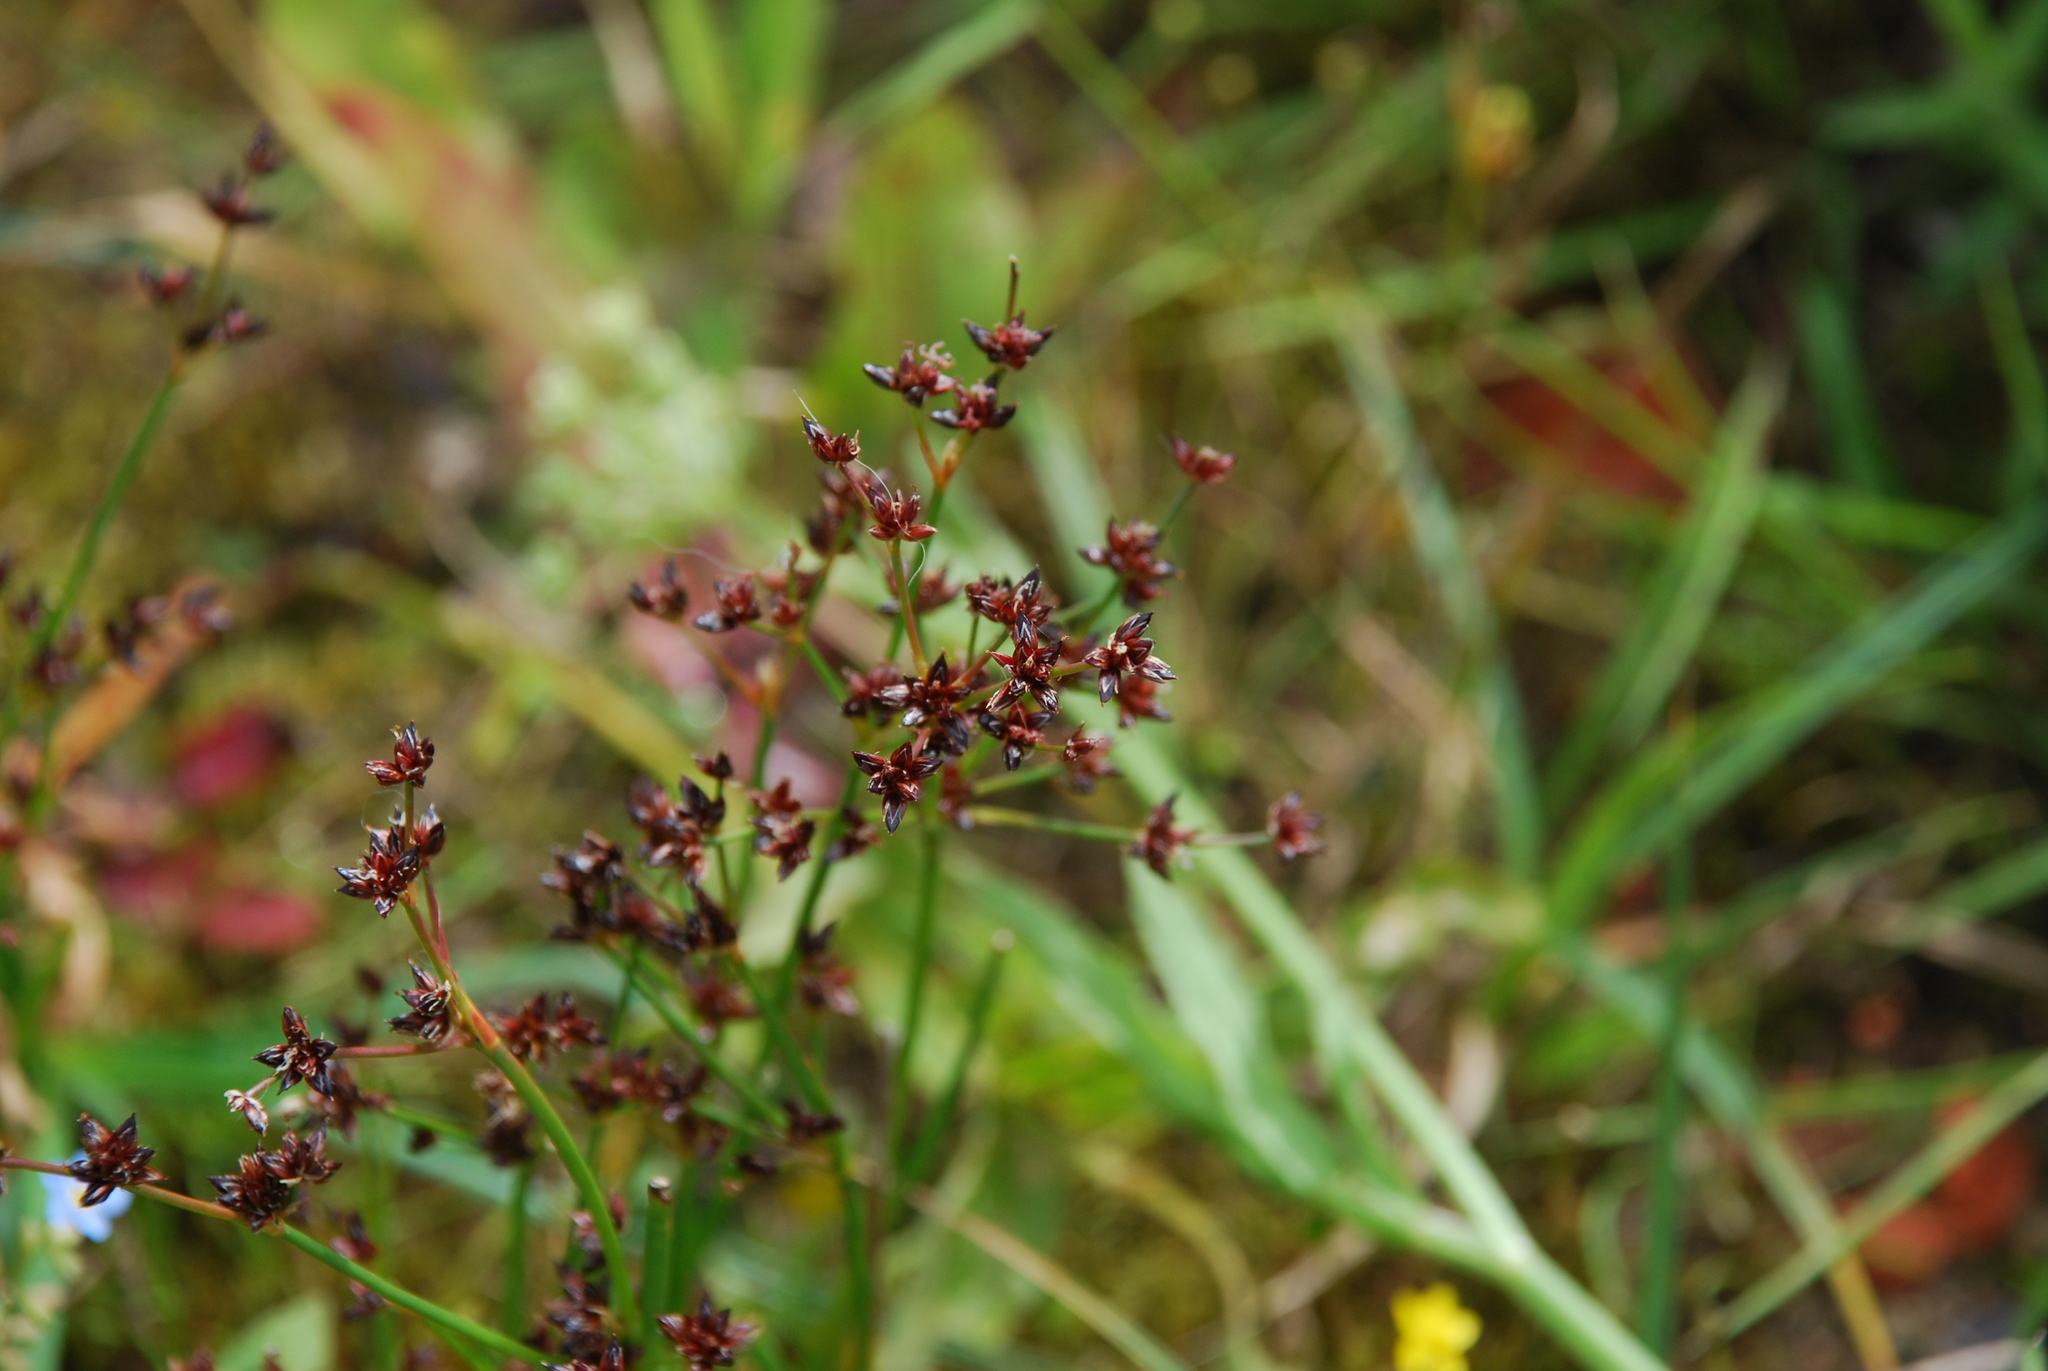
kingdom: Plantae
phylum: Tracheophyta
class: Liliopsida
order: Poales
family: Juncaceae
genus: Juncus
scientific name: Juncus articulatus
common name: Jointed rush
